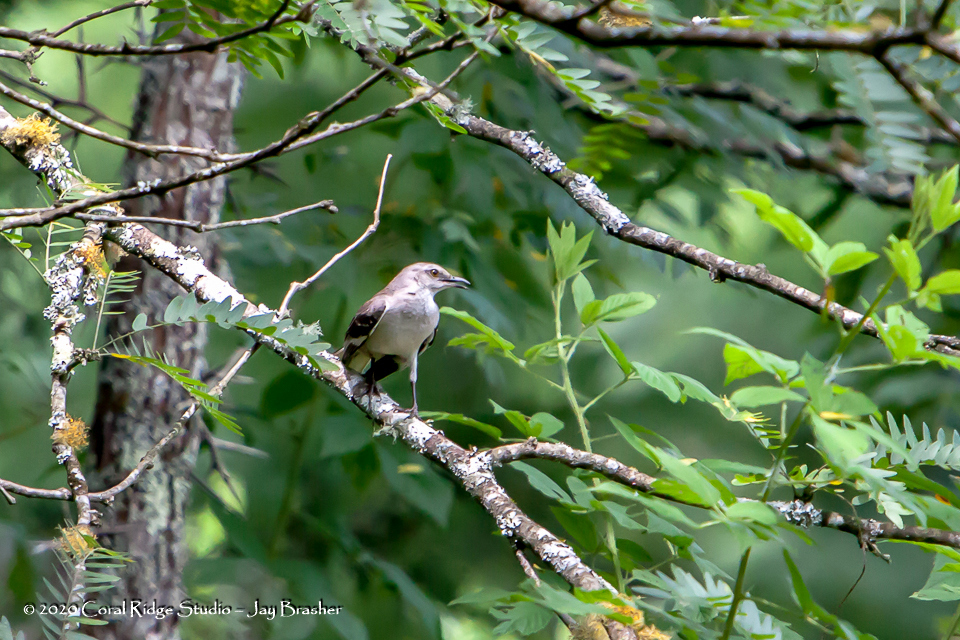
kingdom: Animalia
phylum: Chordata
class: Aves
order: Passeriformes
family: Mimidae
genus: Mimus
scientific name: Mimus polyglottos
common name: Northern mockingbird
